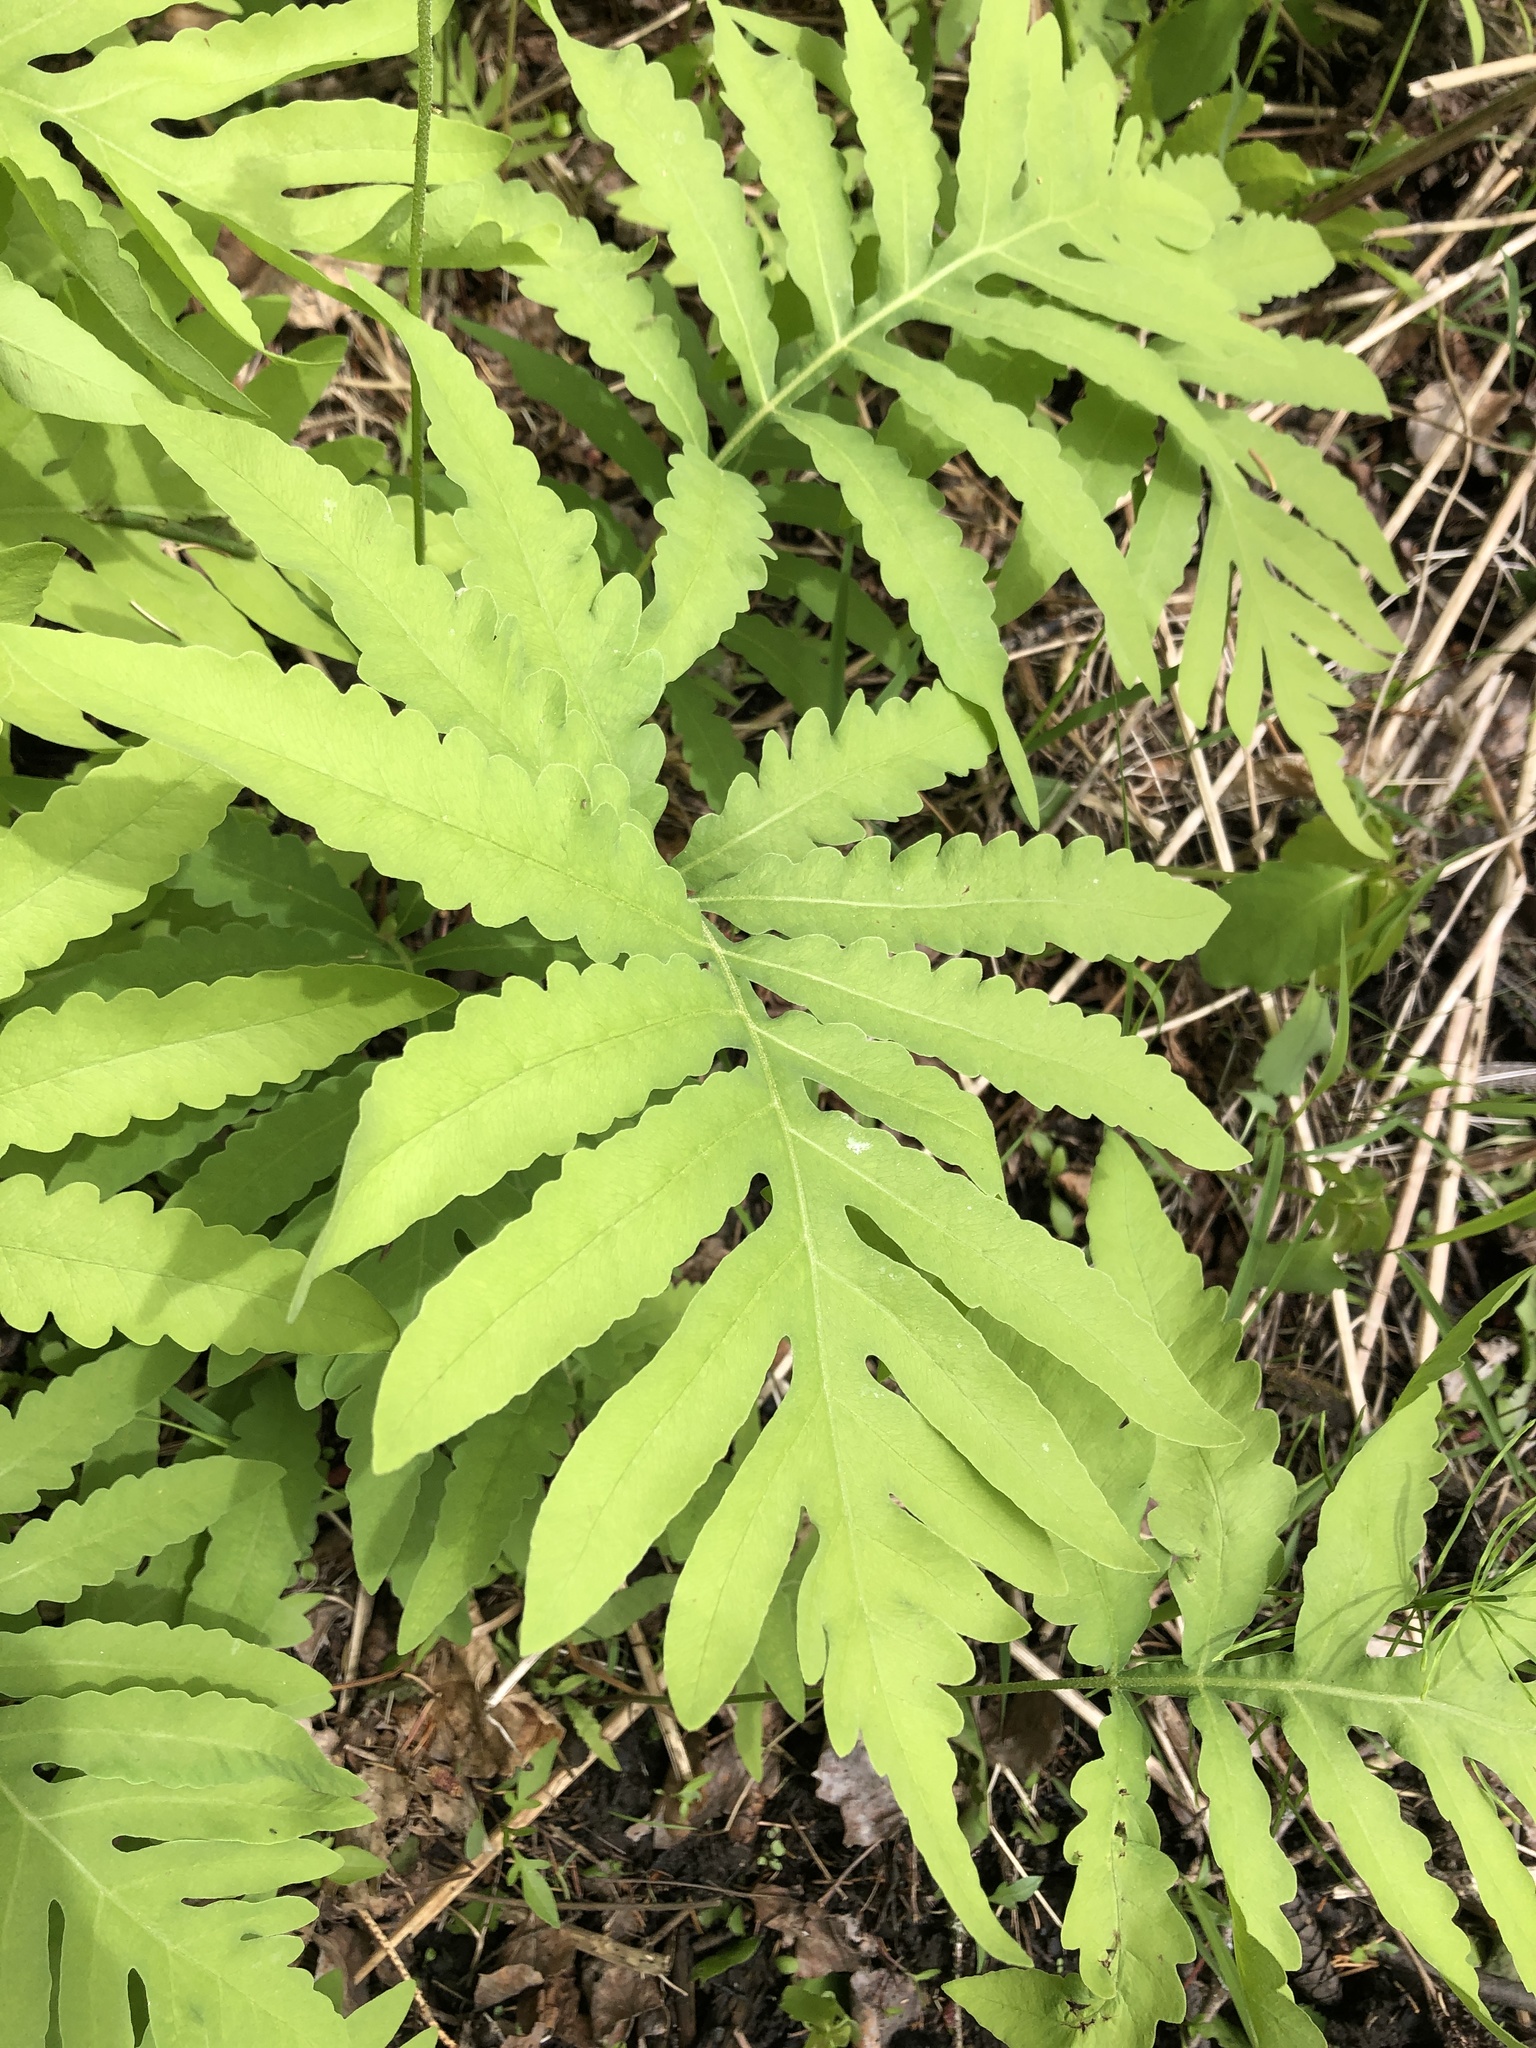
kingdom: Plantae
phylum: Tracheophyta
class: Polypodiopsida
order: Polypodiales
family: Onocleaceae
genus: Onoclea
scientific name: Onoclea sensibilis
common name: Sensitive fern
